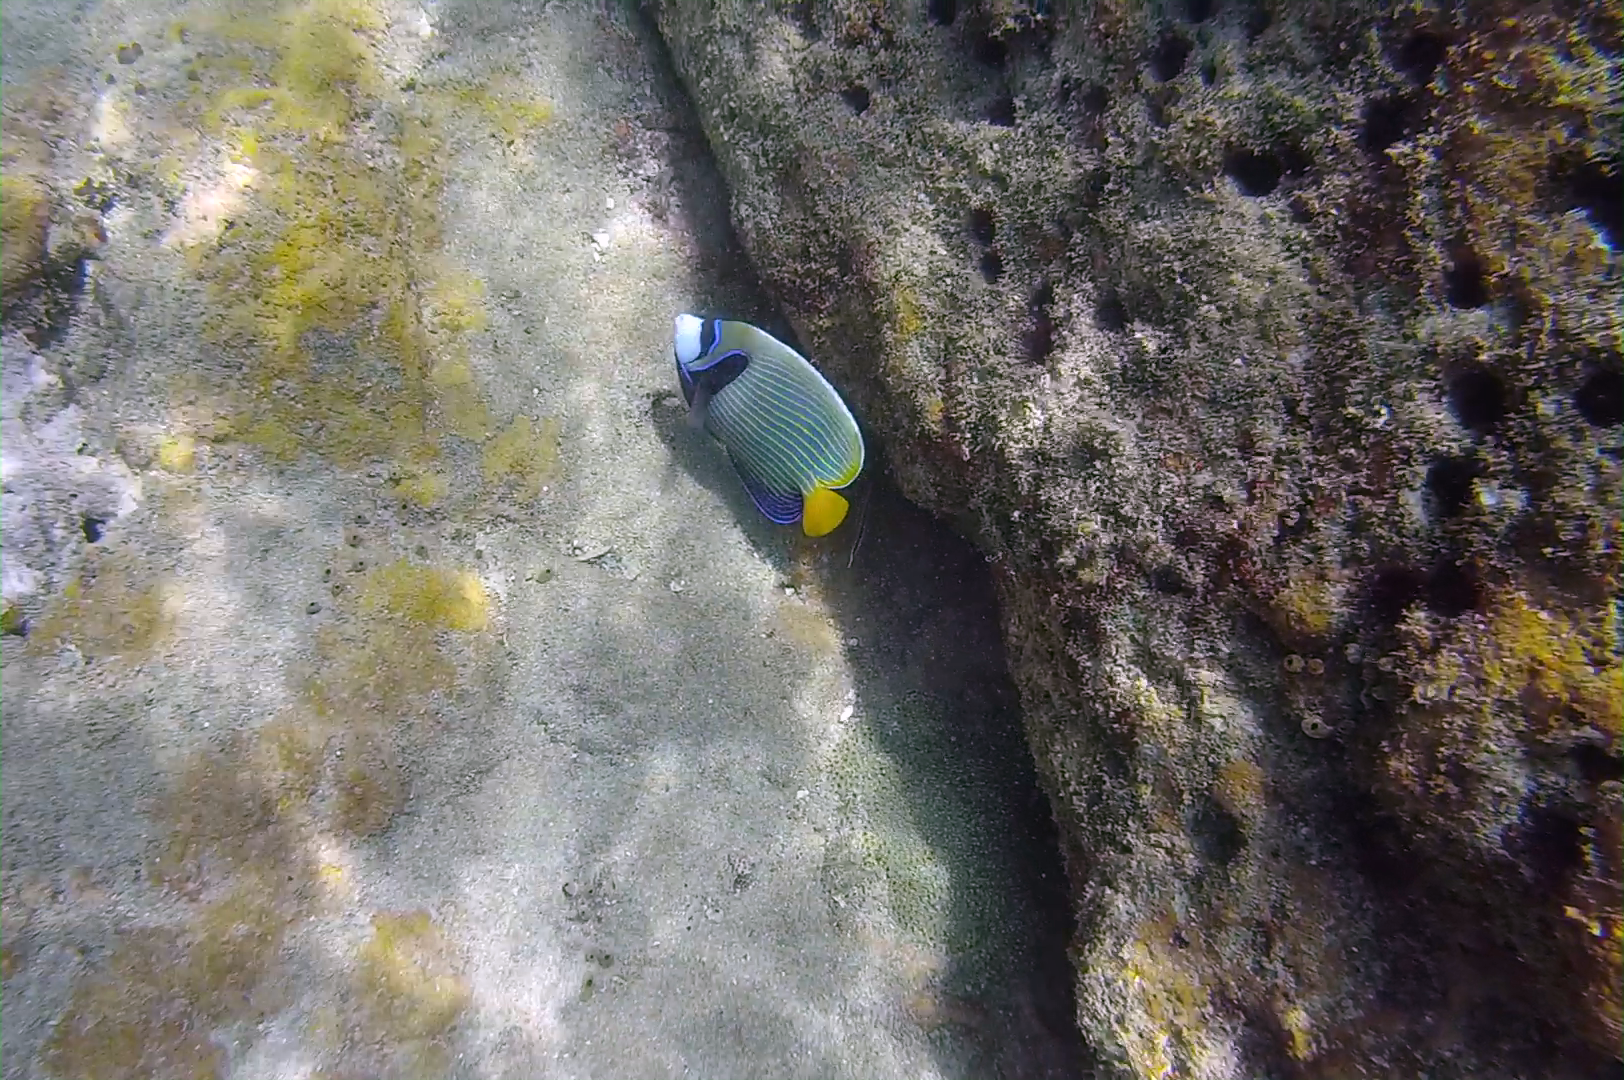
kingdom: Animalia
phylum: Chordata
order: Perciformes
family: Pomacanthidae
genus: Pomacanthus
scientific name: Pomacanthus imperator
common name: Emperor angelfish
